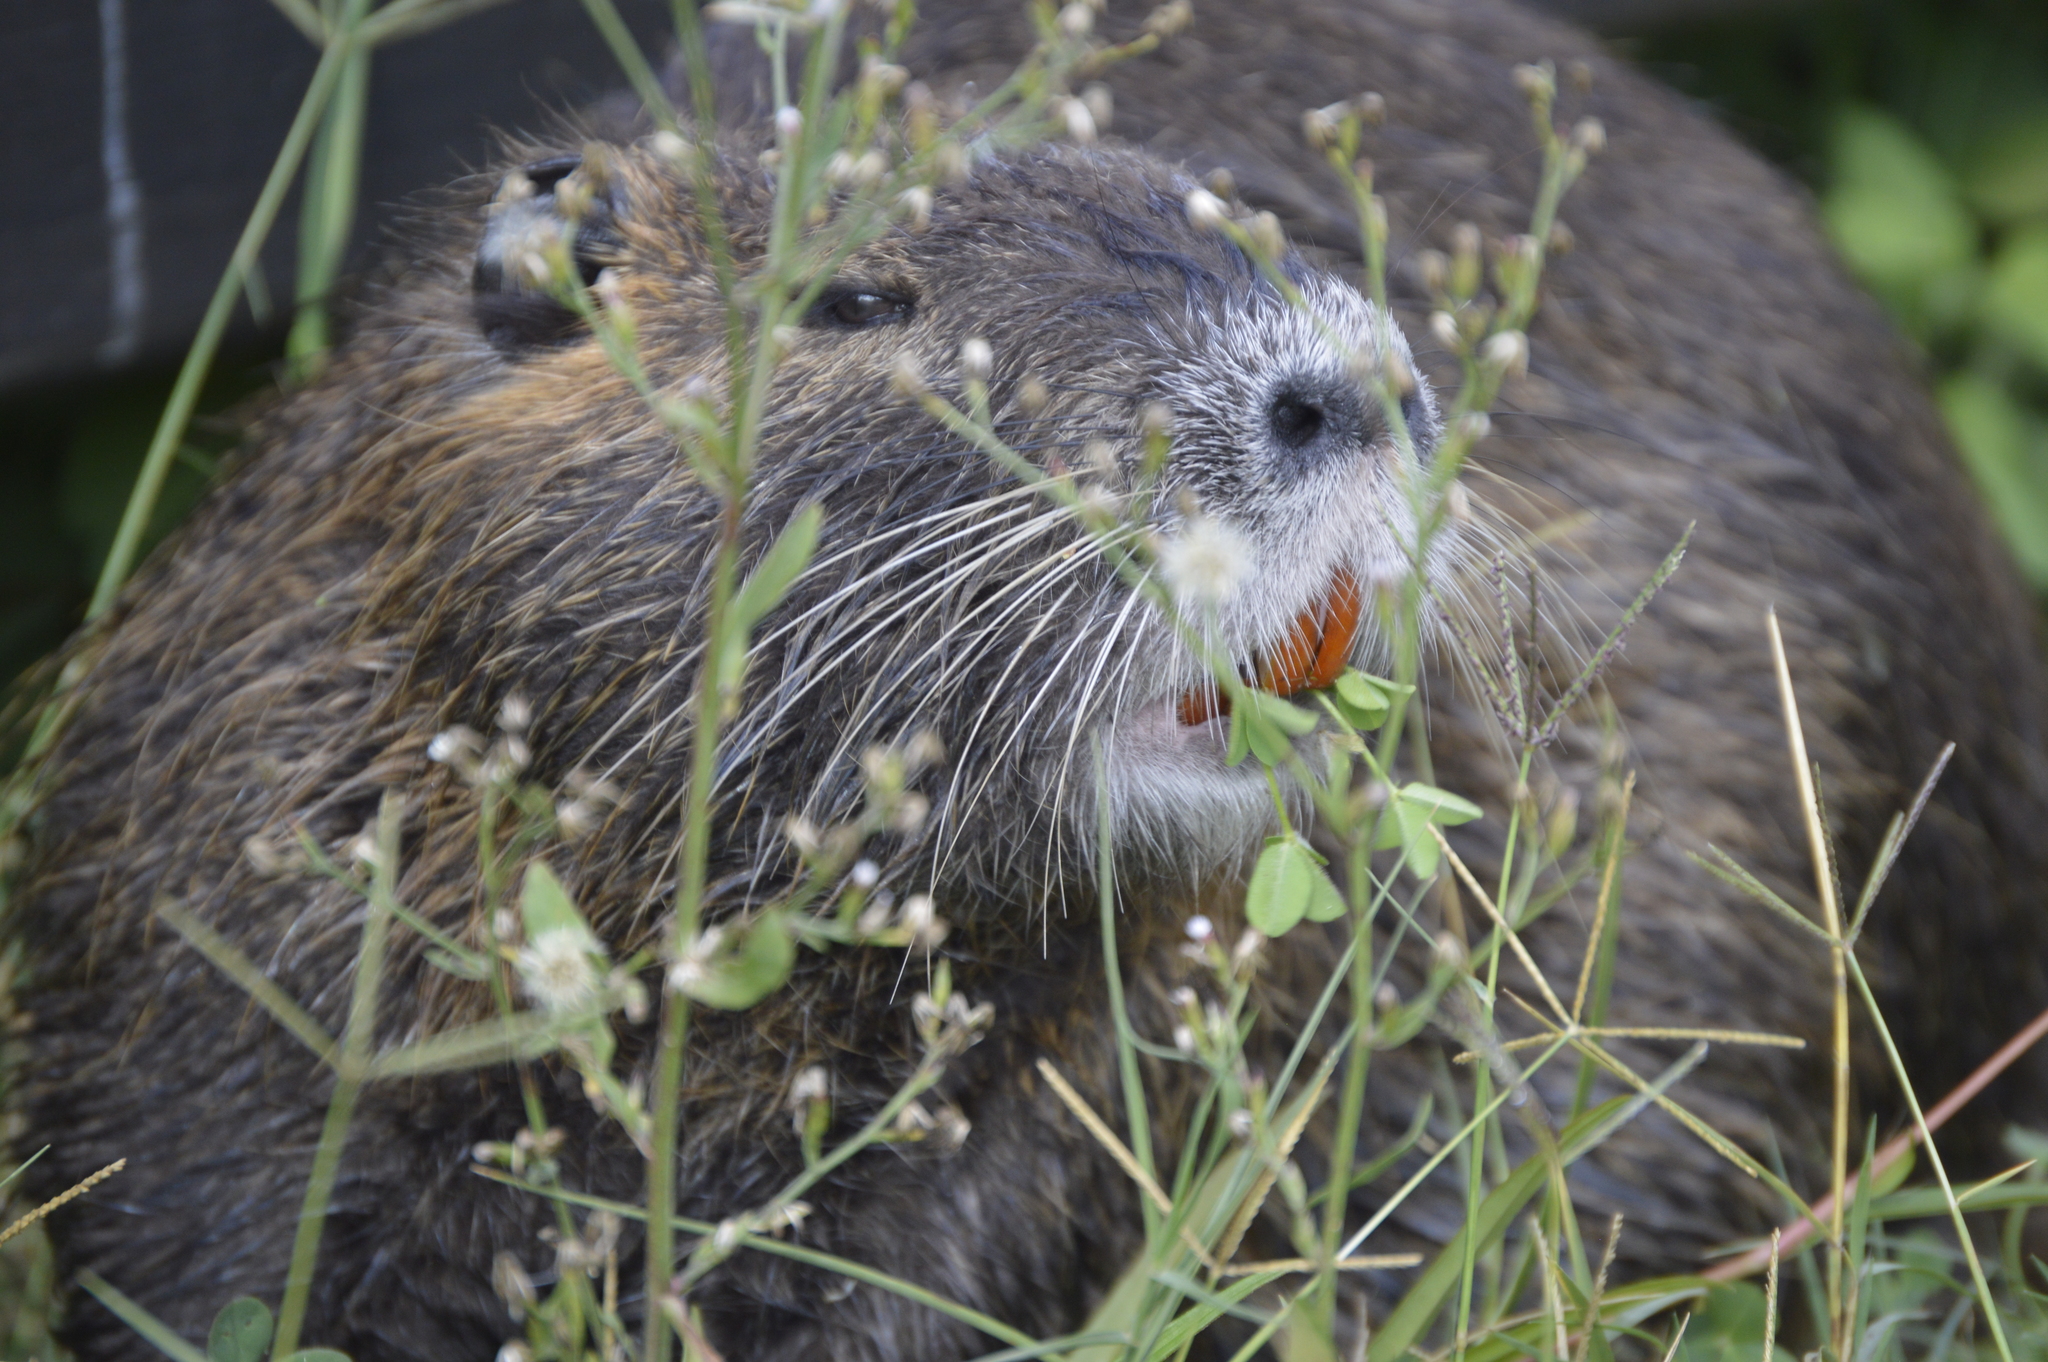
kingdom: Animalia
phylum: Chordata
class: Mammalia
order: Rodentia
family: Myocastoridae
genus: Myocastor
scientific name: Myocastor coypus
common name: Coypu
